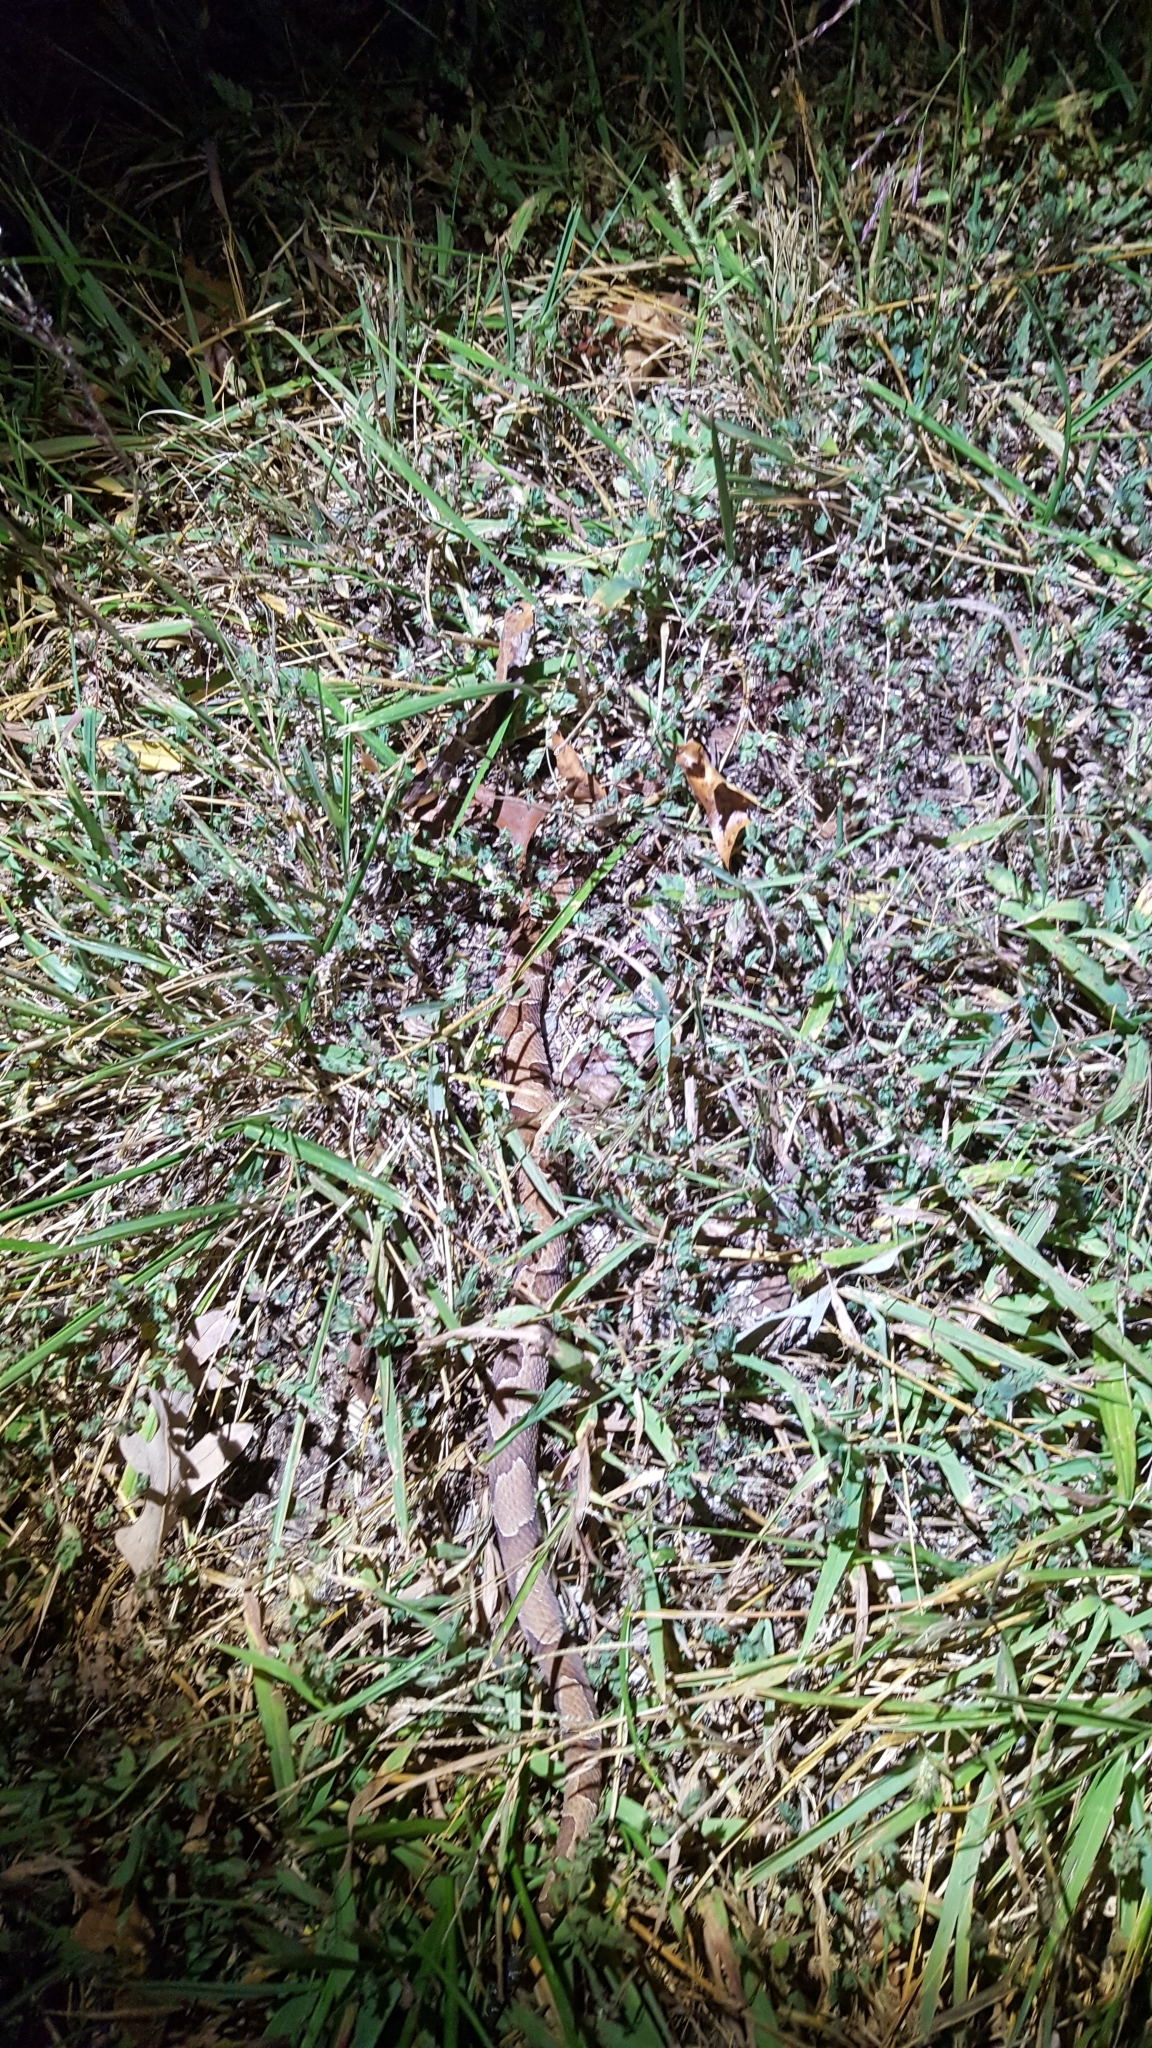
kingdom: Animalia
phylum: Chordata
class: Squamata
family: Viperidae
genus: Agkistrodon
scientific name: Agkistrodon contortrix
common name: Northern copperhead
